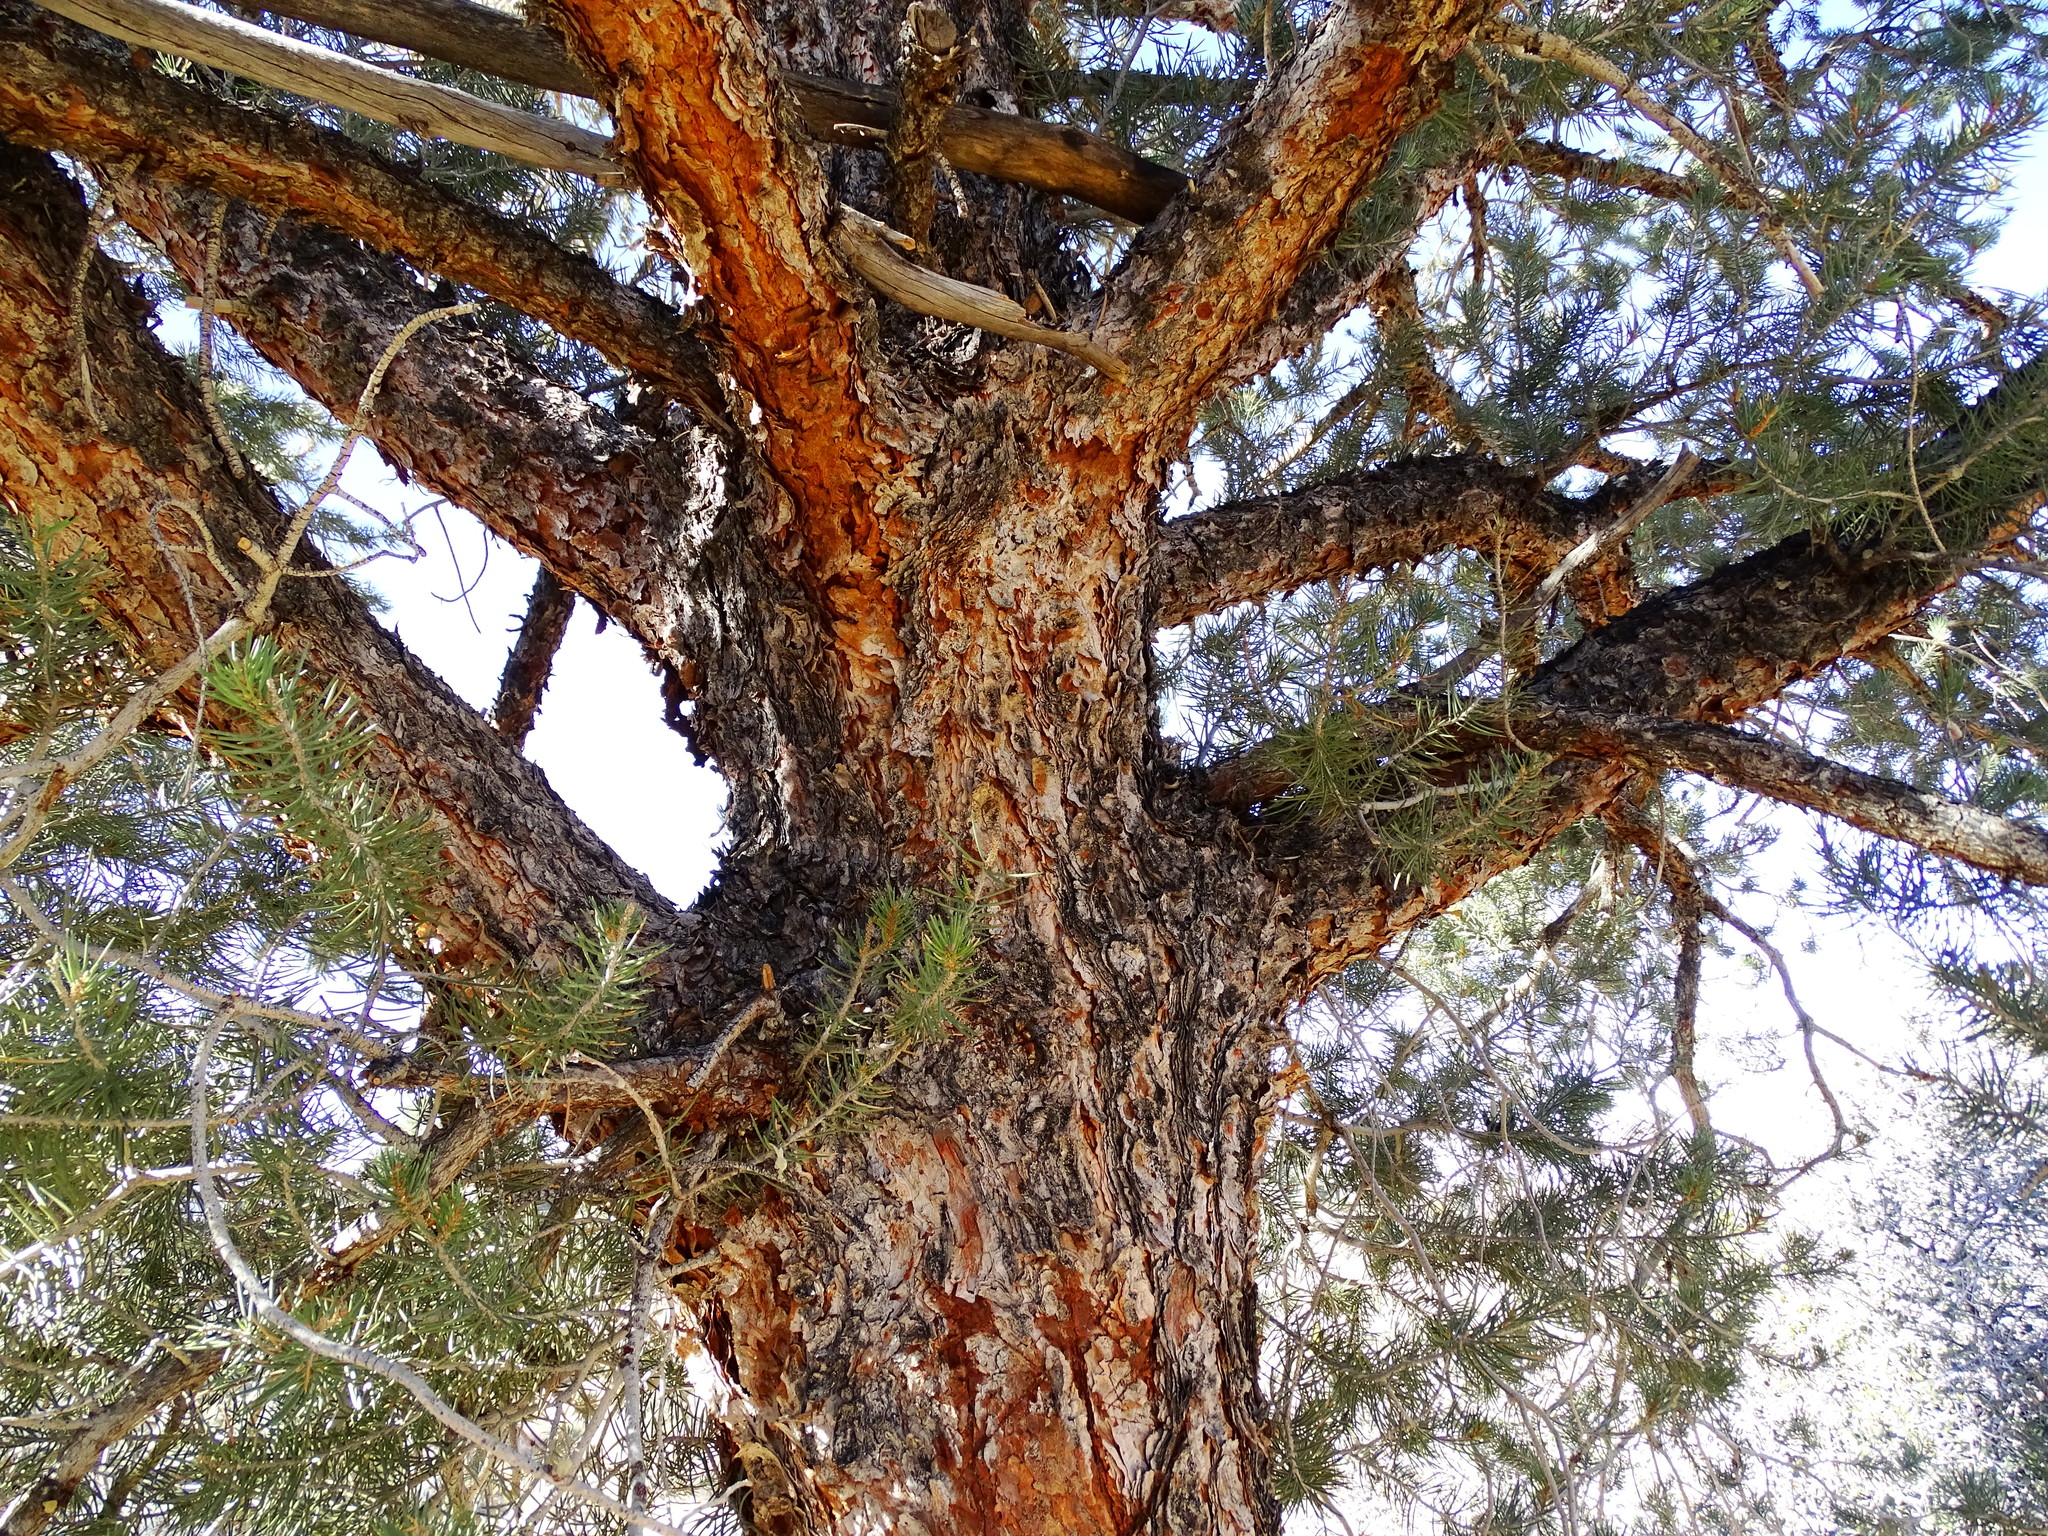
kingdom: Plantae
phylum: Tracheophyta
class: Pinopsida
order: Pinales
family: Pinaceae
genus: Pinus
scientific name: Pinus monophylla
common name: One-leaved nut pine
